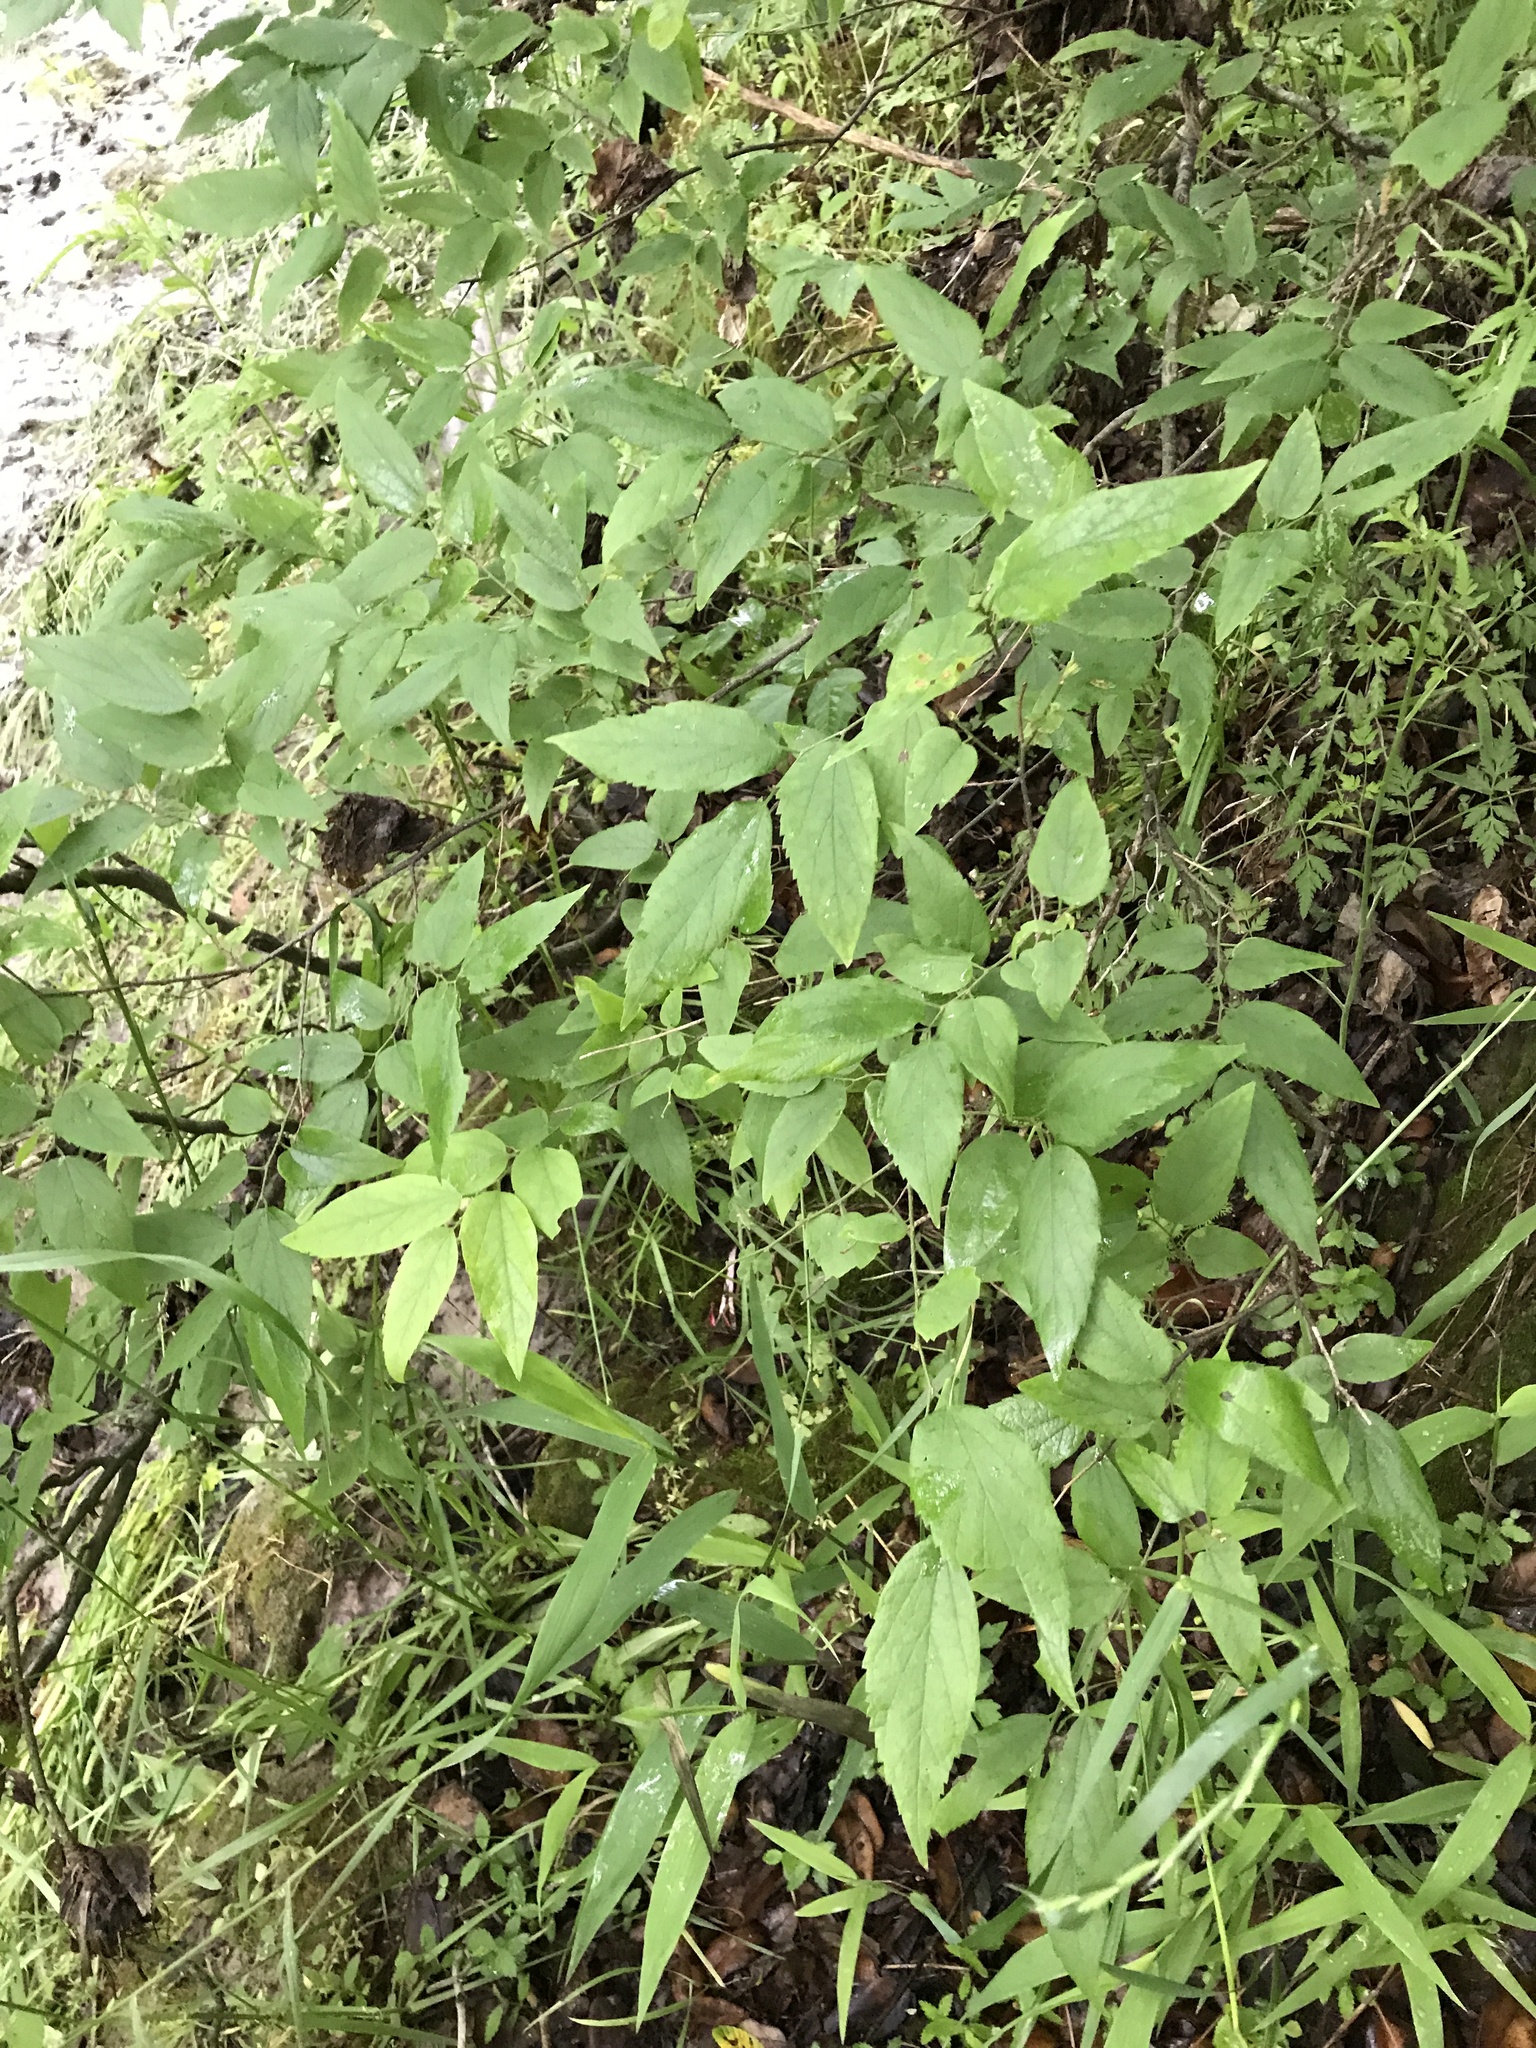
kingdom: Plantae
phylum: Tracheophyta
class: Magnoliopsida
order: Rosales
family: Cannabaceae
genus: Celtis
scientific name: Celtis laevigata
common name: Sugarberry
